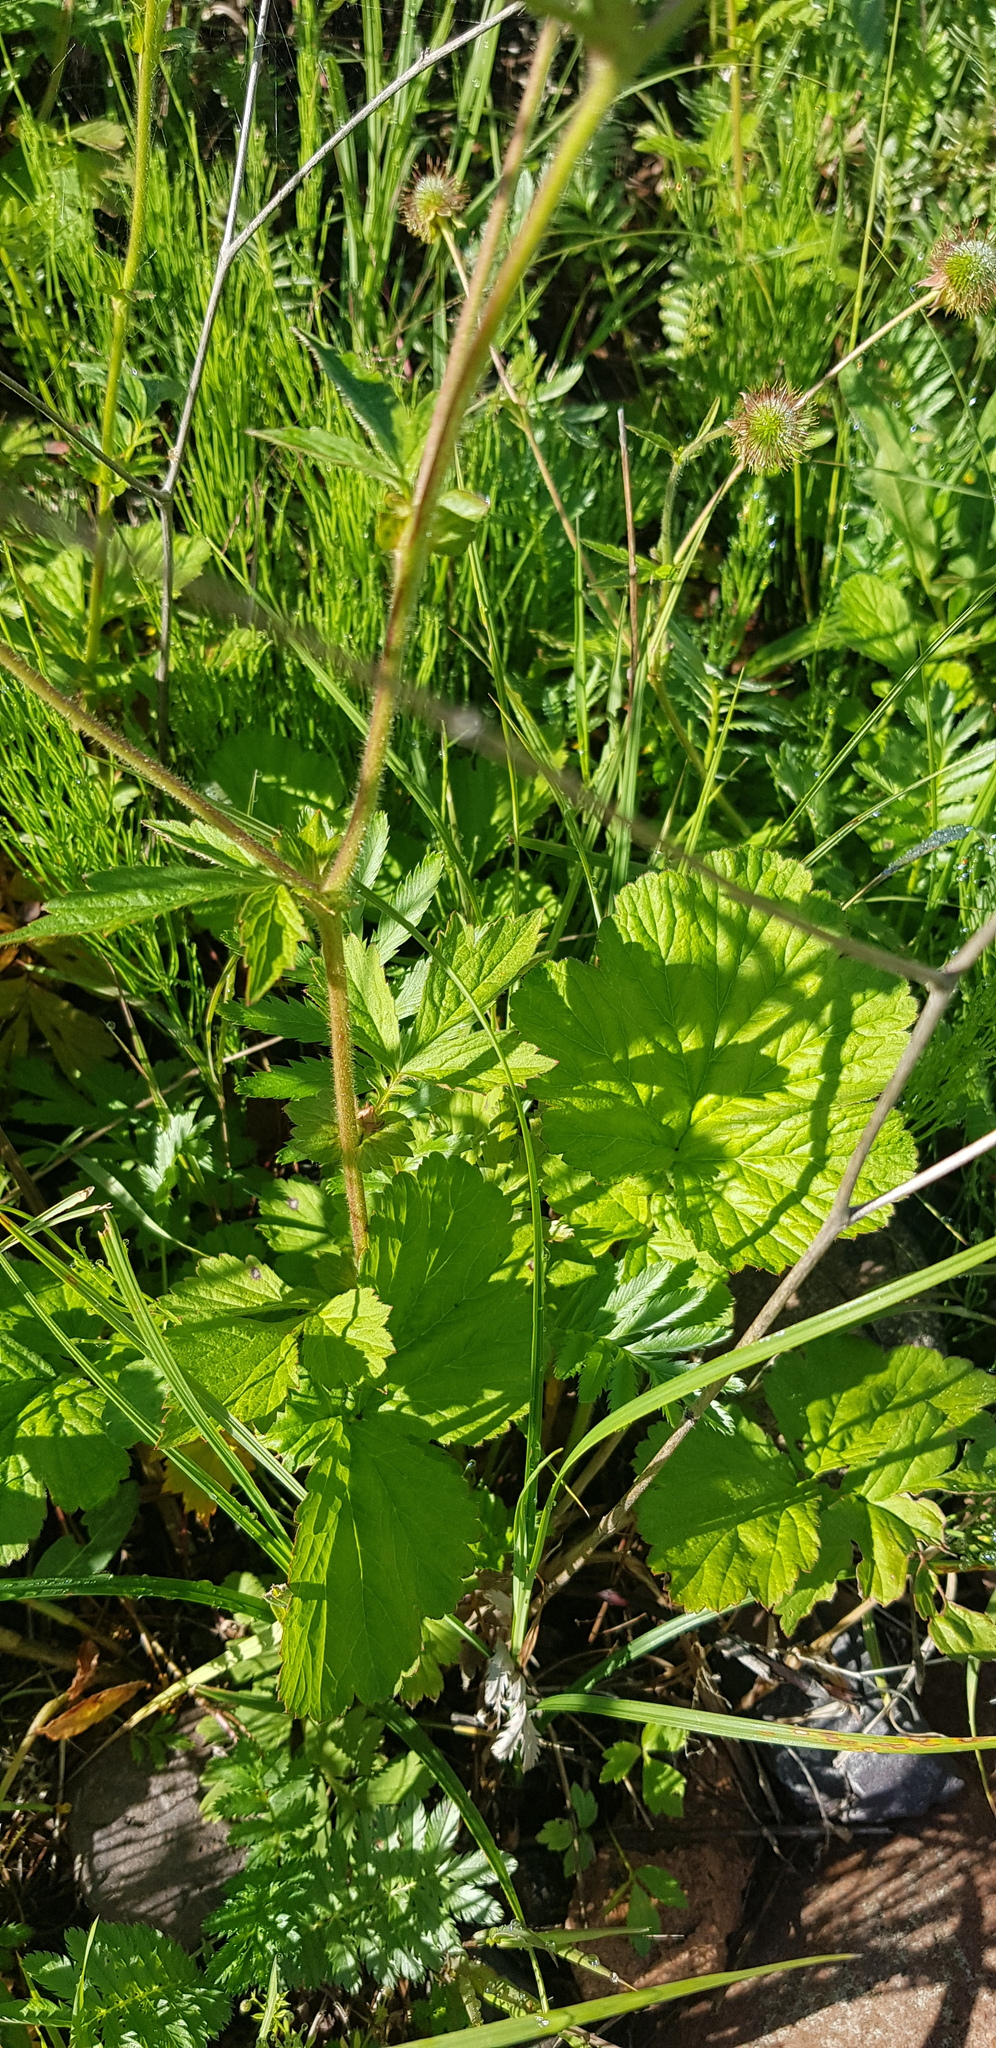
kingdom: Plantae
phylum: Tracheophyta
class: Magnoliopsida
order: Rosales
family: Rosaceae
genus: Geum
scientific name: Geum aleppicum
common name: Yellow avens
